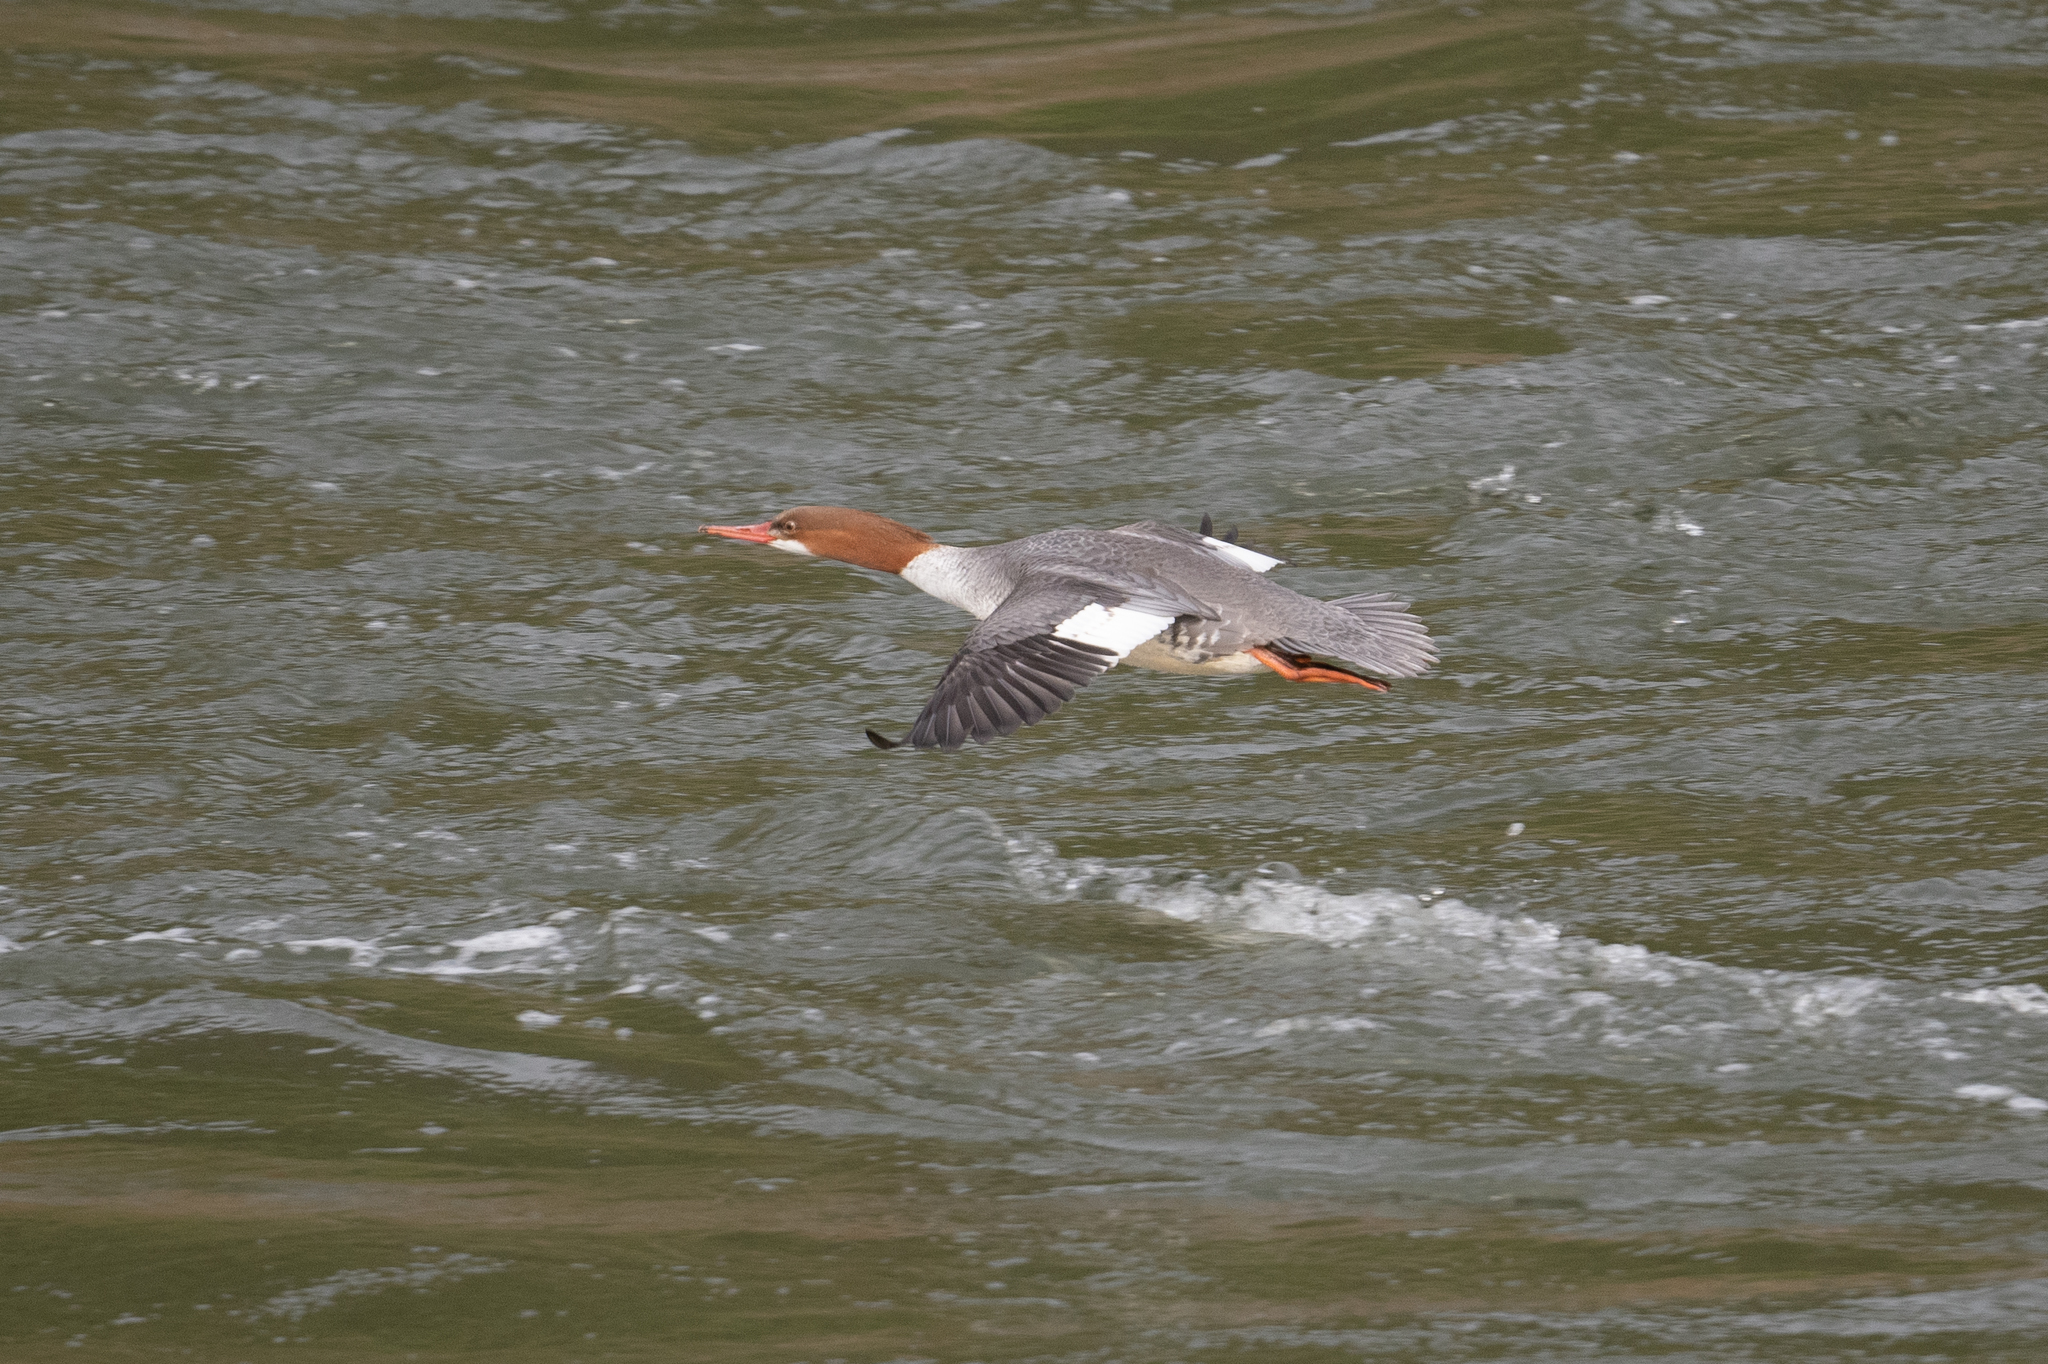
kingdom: Animalia
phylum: Chordata
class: Aves
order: Anseriformes
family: Anatidae
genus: Mergus
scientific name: Mergus merganser
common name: Common merganser
